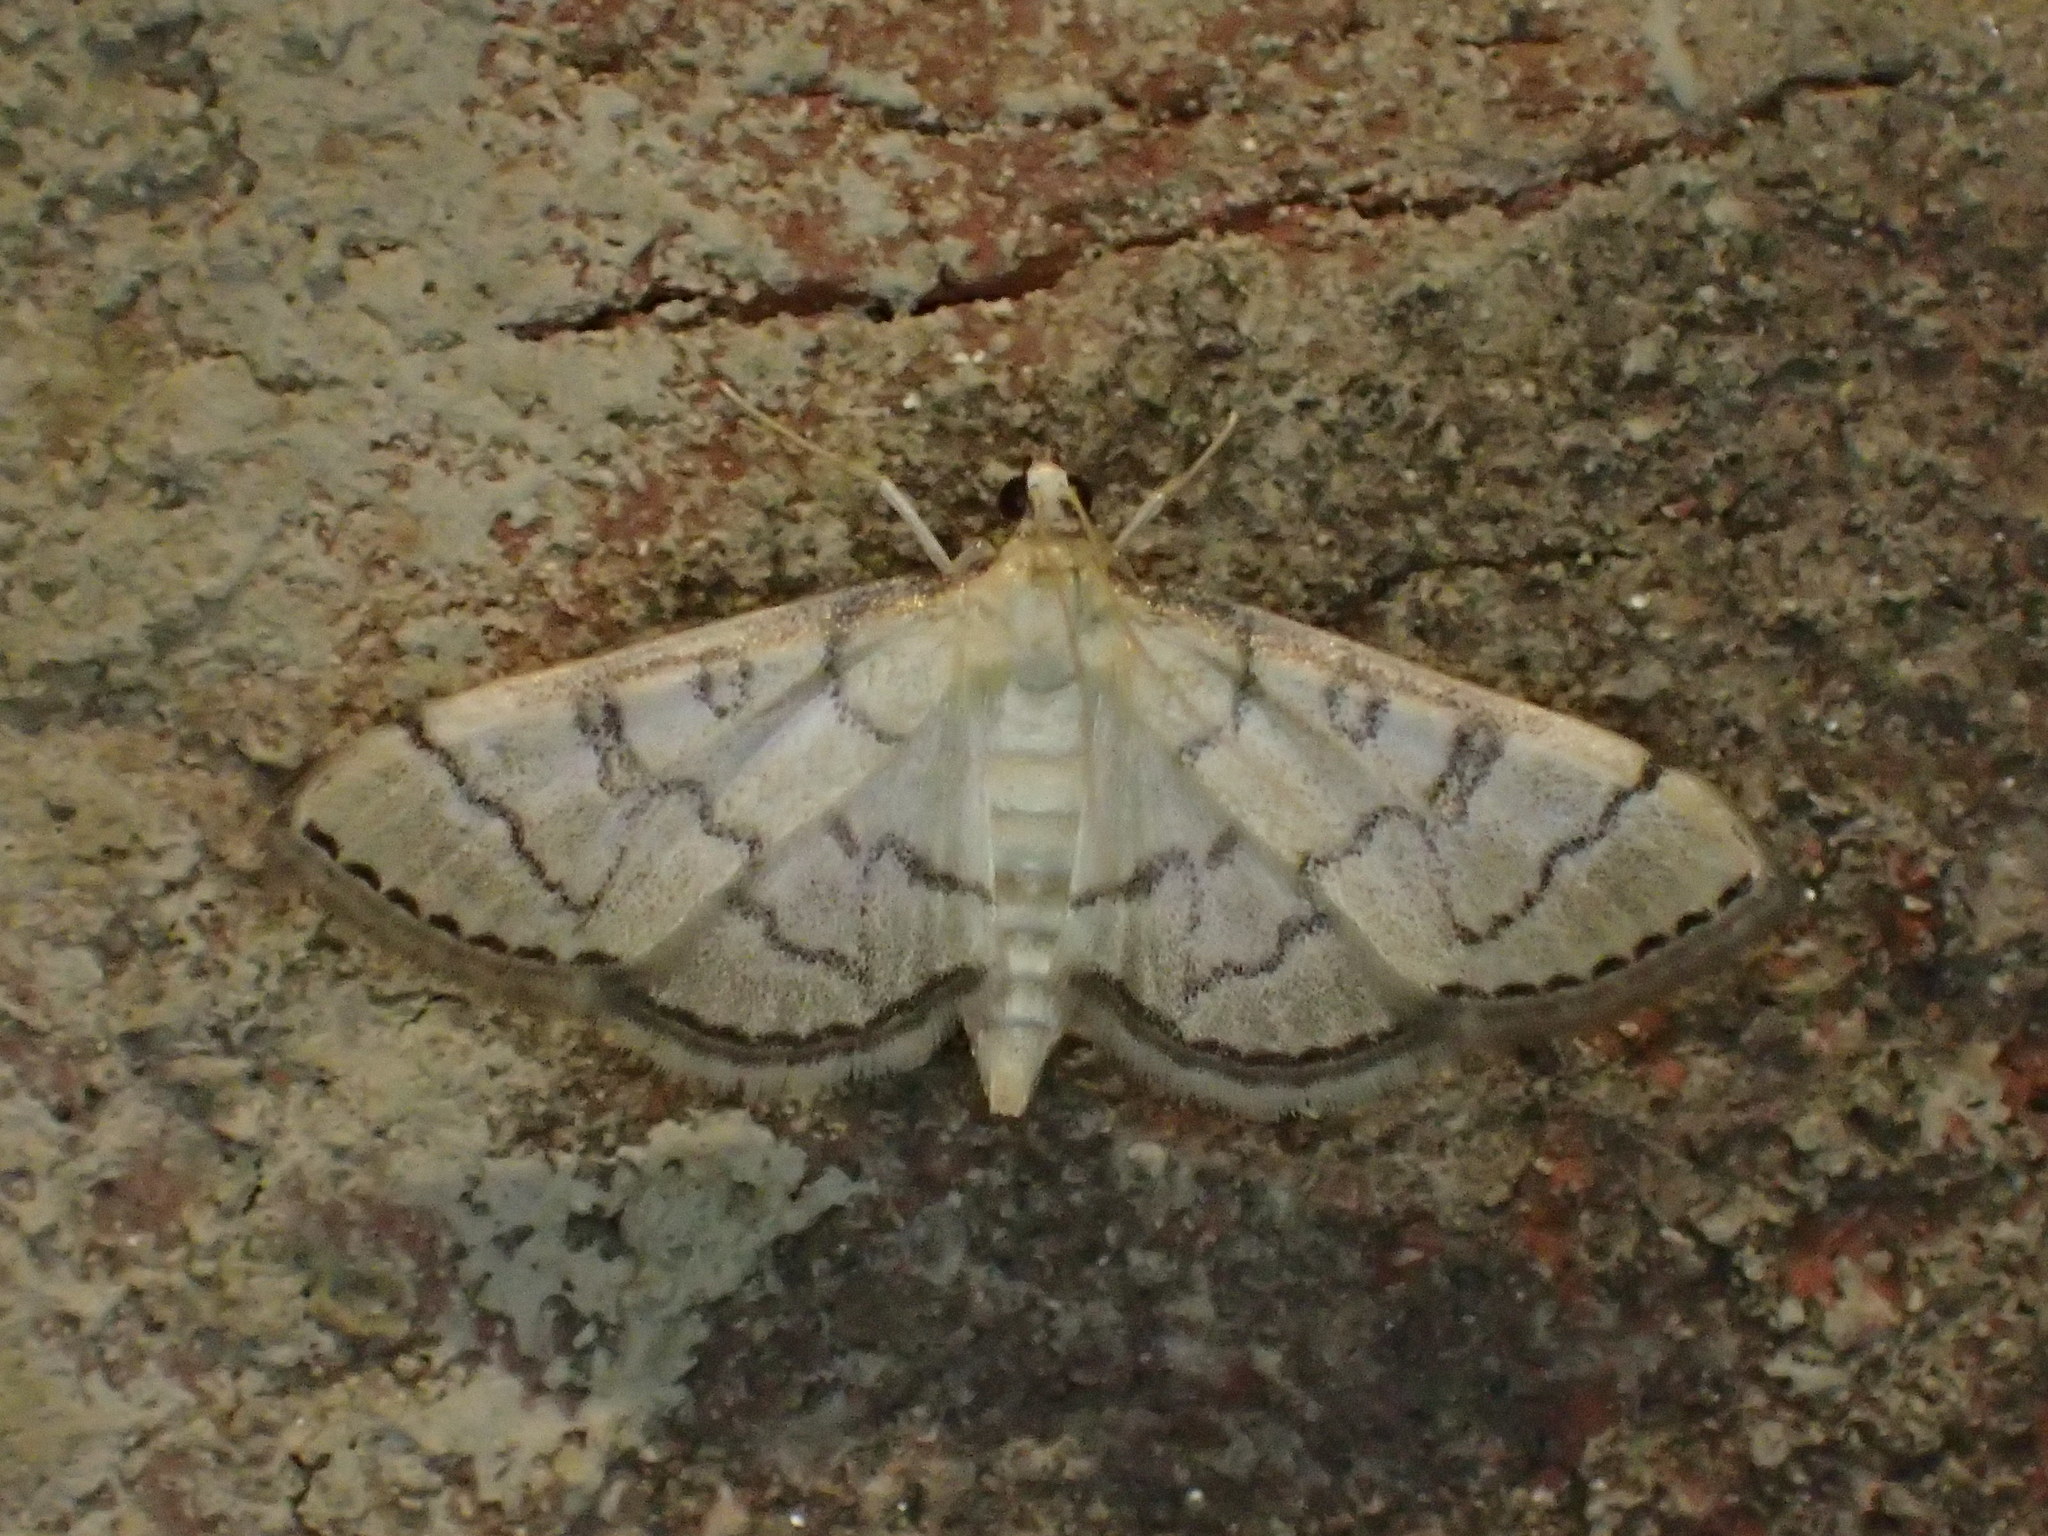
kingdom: Animalia
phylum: Arthropoda
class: Insecta
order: Lepidoptera
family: Crambidae
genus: Lamprosema
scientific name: Lamprosema Blepharomastix ranalis
